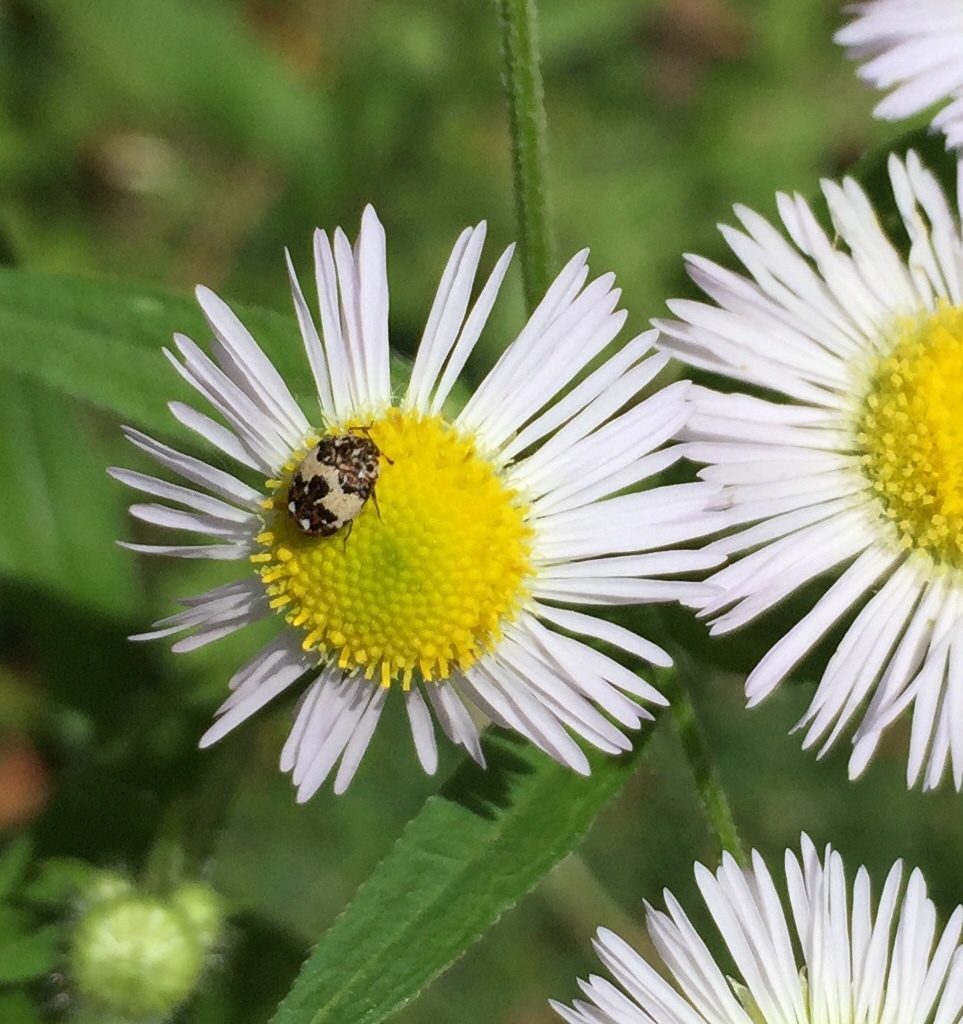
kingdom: Animalia
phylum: Arthropoda
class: Insecta
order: Coleoptera
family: Dermestidae
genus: Anthrenus
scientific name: Anthrenus isabellinus
